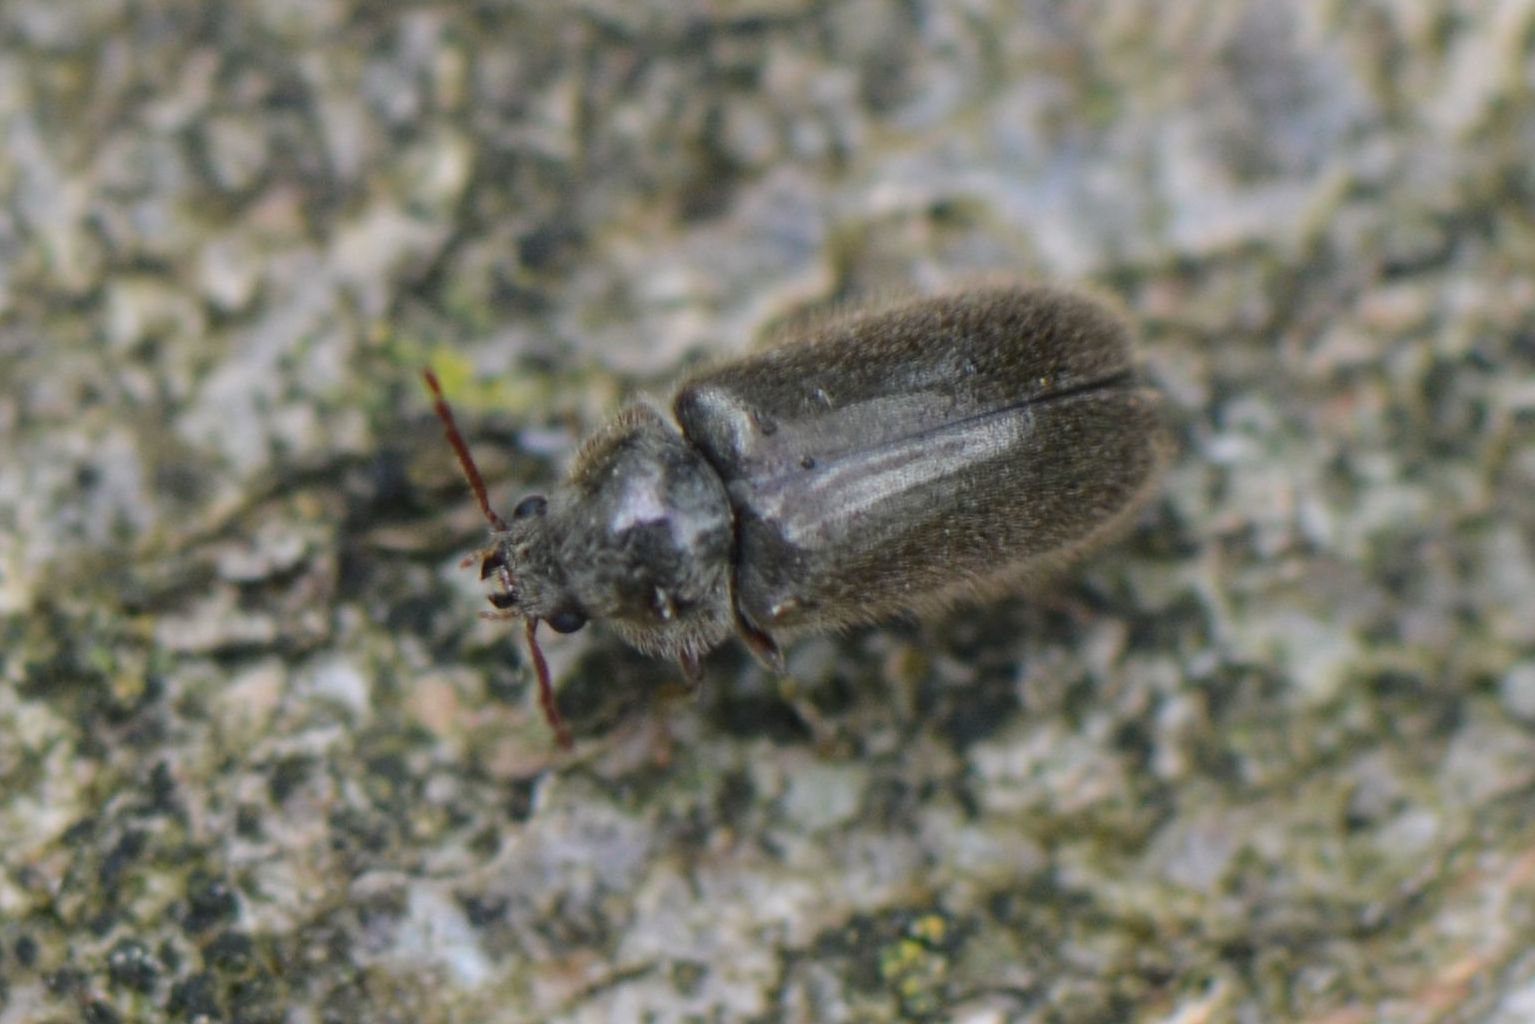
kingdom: Animalia
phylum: Arthropoda
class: Insecta
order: Coleoptera
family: Ptinidae
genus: Hyperisus
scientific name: Hyperisus plumbeus
